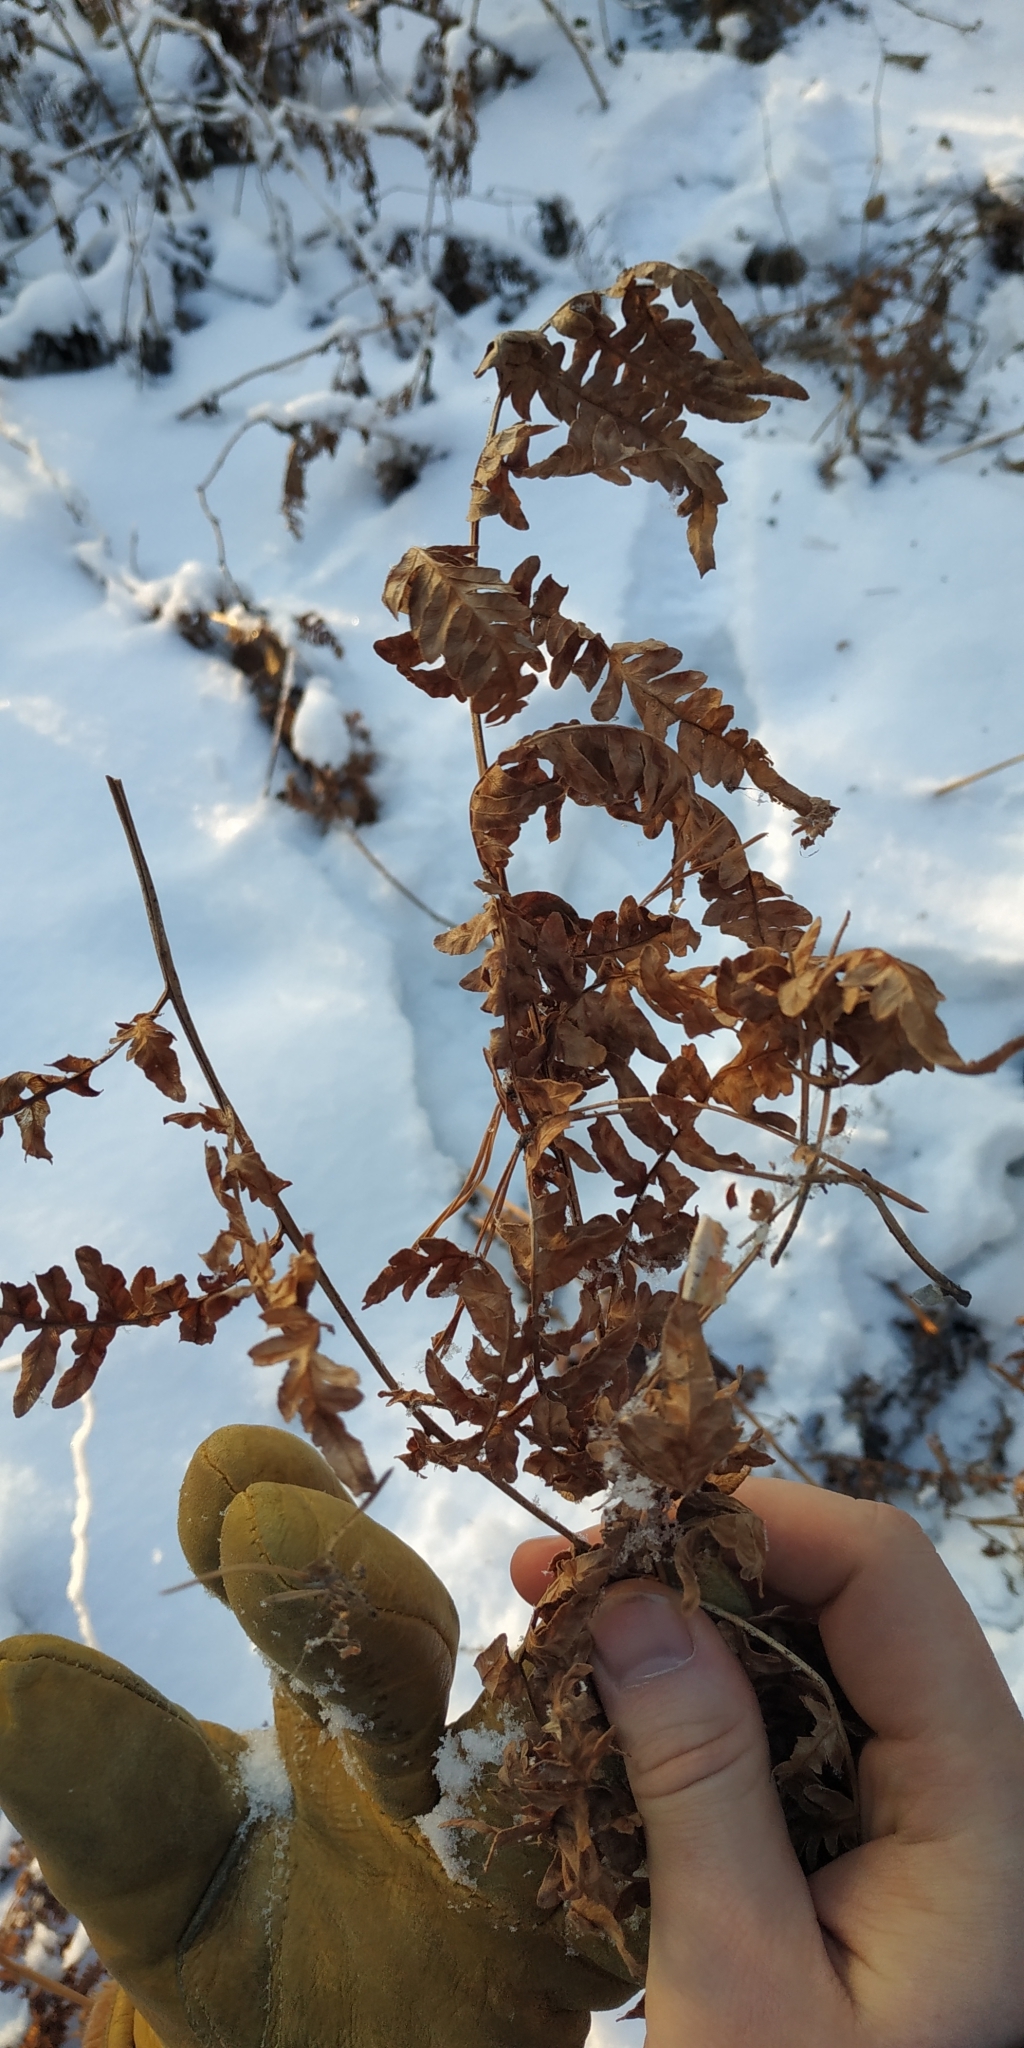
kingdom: Plantae
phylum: Tracheophyta
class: Polypodiopsida
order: Polypodiales
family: Dennstaedtiaceae
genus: Pteridium
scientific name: Pteridium aquilinum
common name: Bracken
